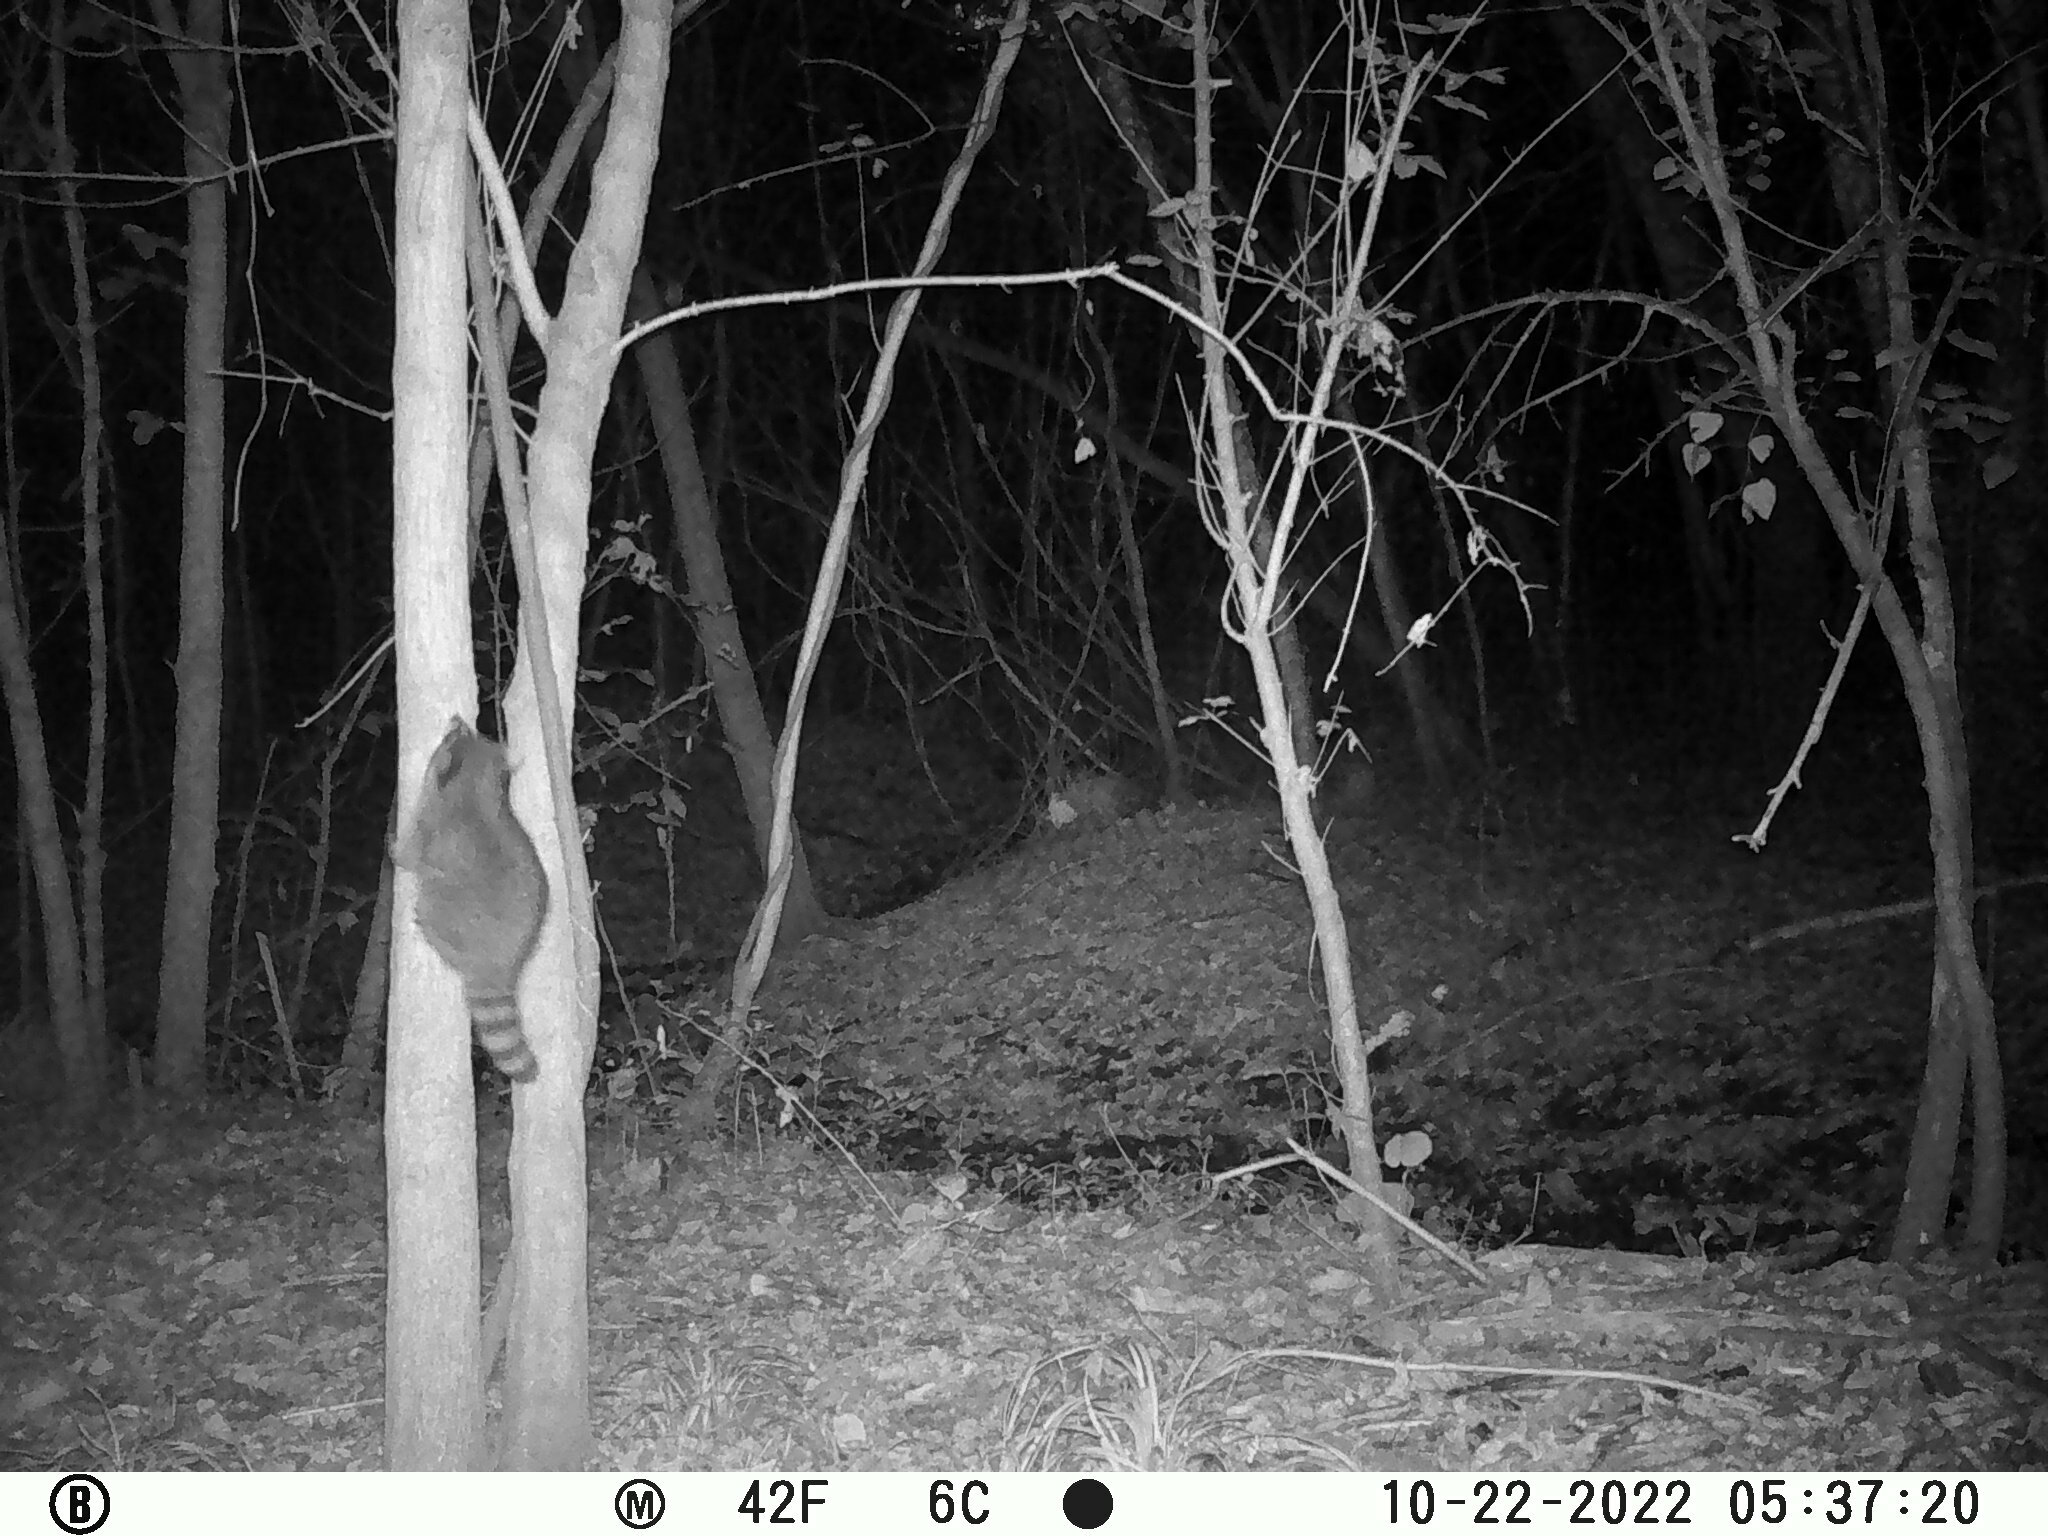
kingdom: Animalia
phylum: Chordata
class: Mammalia
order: Carnivora
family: Procyonidae
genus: Procyon
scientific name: Procyon lotor
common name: Raccoon
